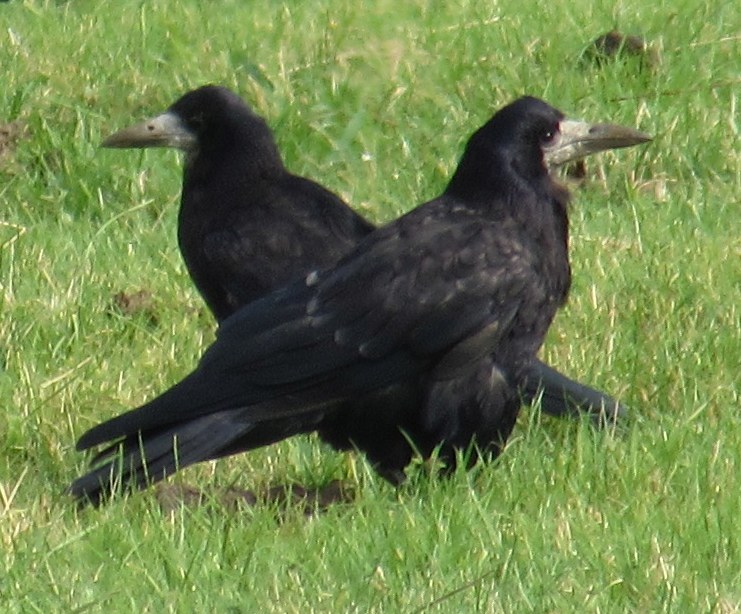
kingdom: Animalia
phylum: Chordata
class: Aves
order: Passeriformes
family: Corvidae
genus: Corvus
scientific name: Corvus frugilegus
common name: Rook
